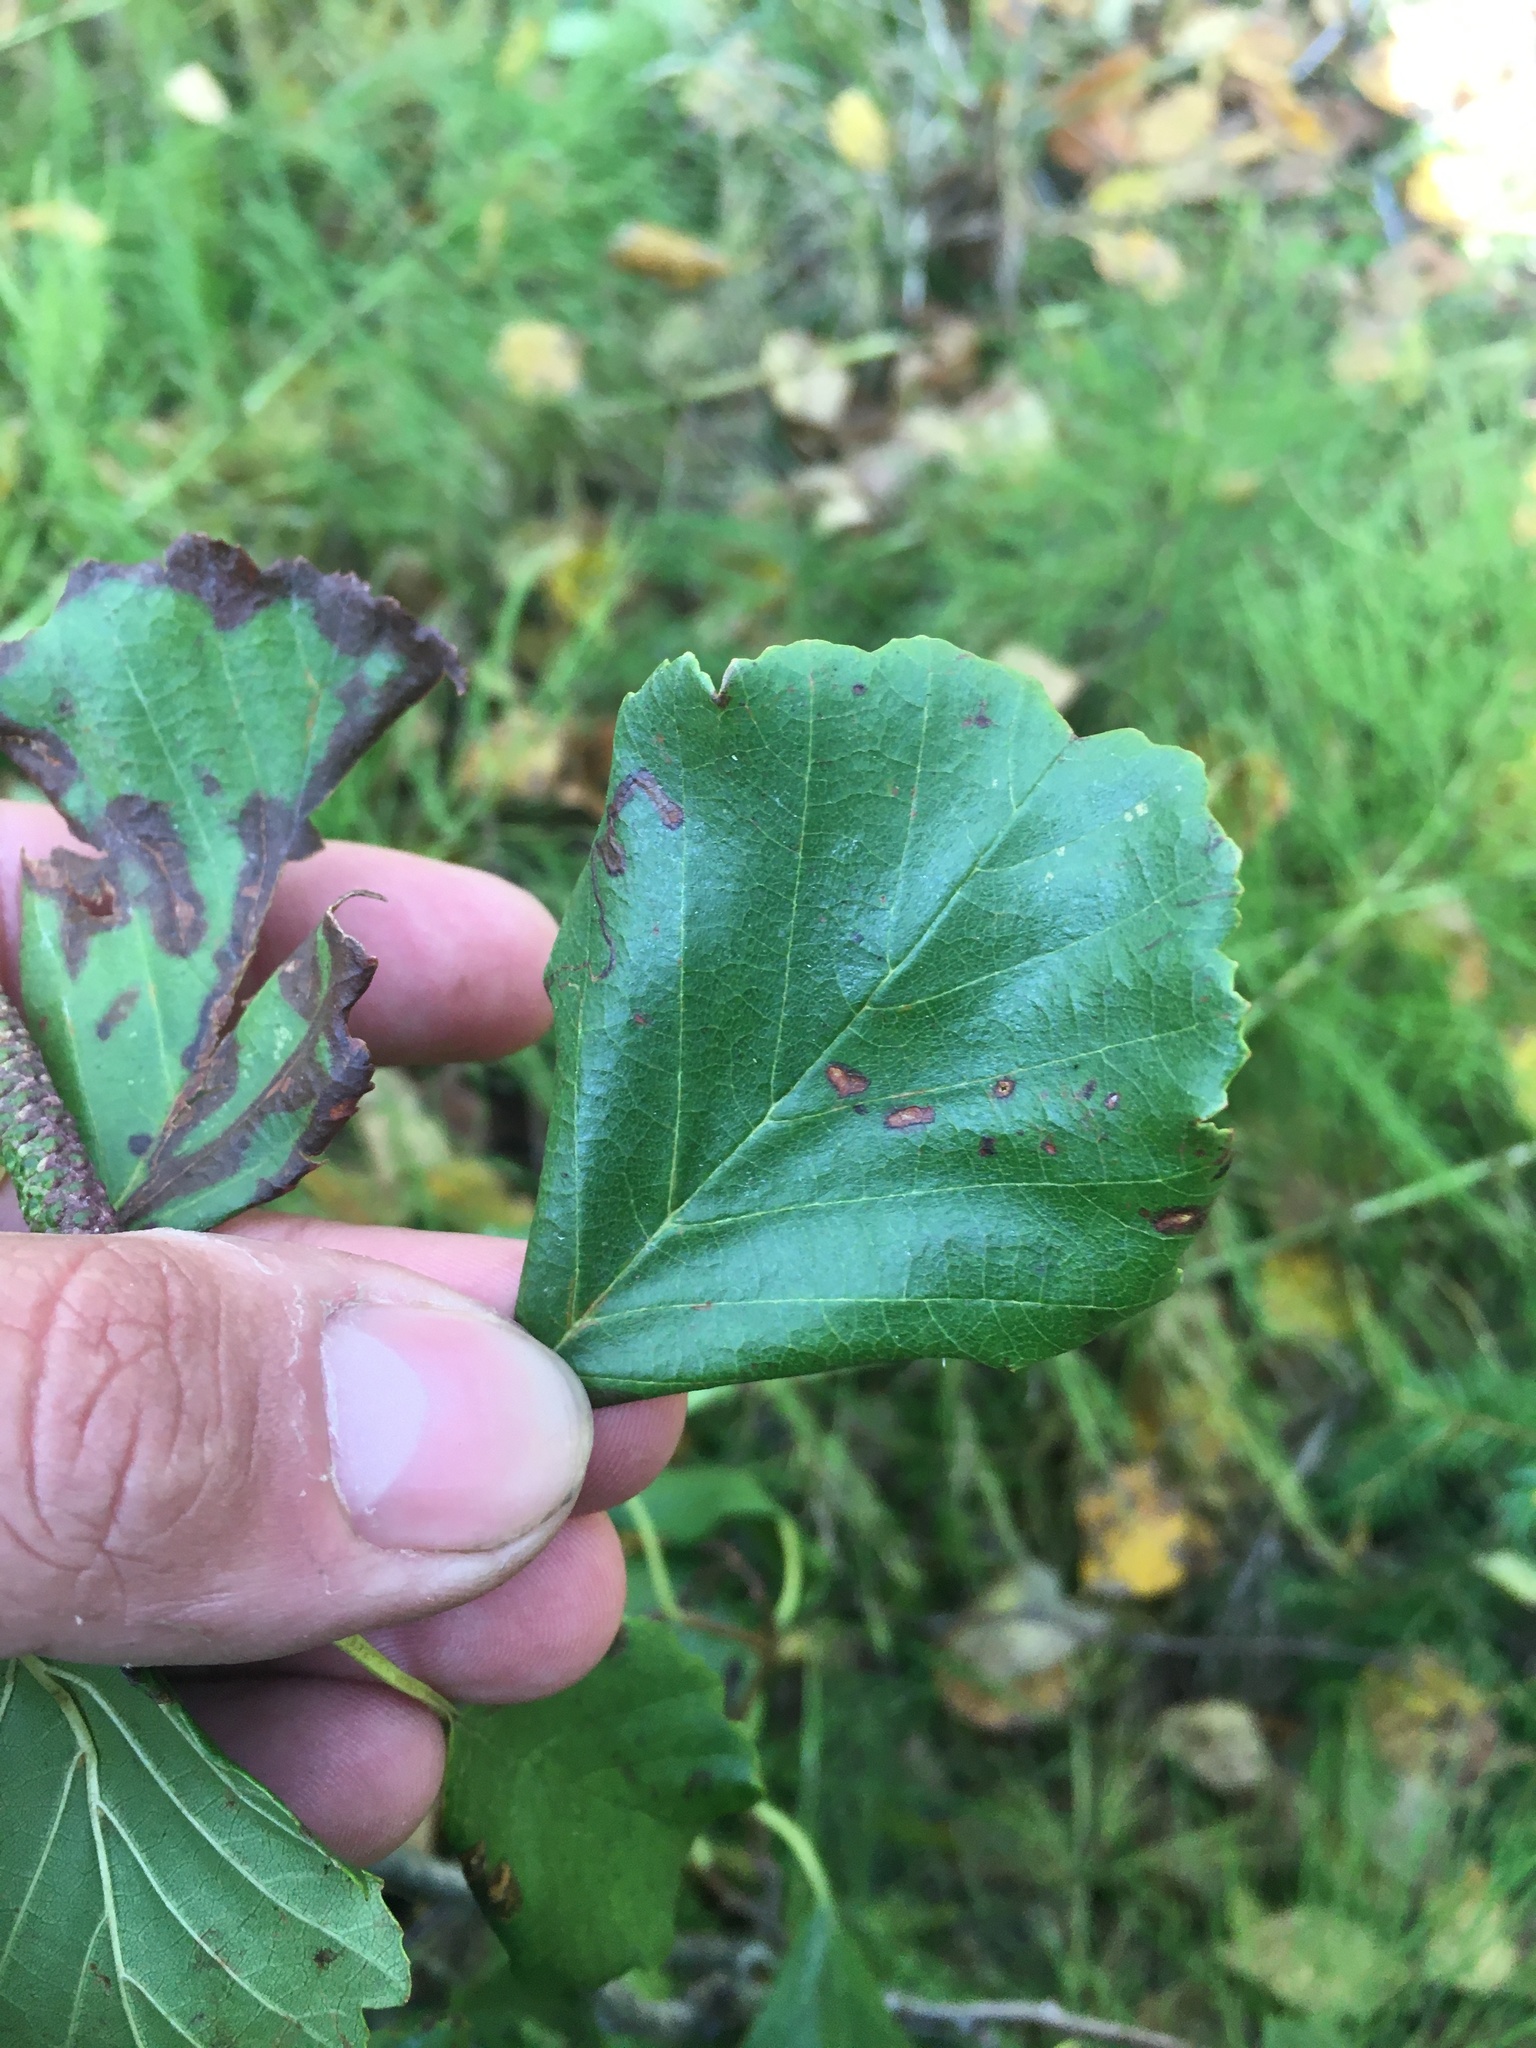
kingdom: Plantae
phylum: Tracheophyta
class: Magnoliopsida
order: Fagales
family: Betulaceae
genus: Alnus
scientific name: Alnus glutinosa
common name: Black alder
